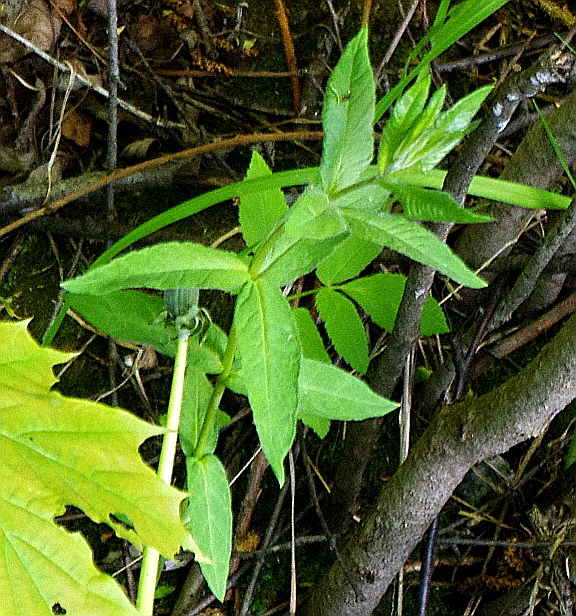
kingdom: Plantae
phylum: Tracheophyta
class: Magnoliopsida
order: Ericales
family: Primulaceae
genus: Lysimachia
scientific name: Lysimachia vulgaris
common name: Yellow loosestrife
